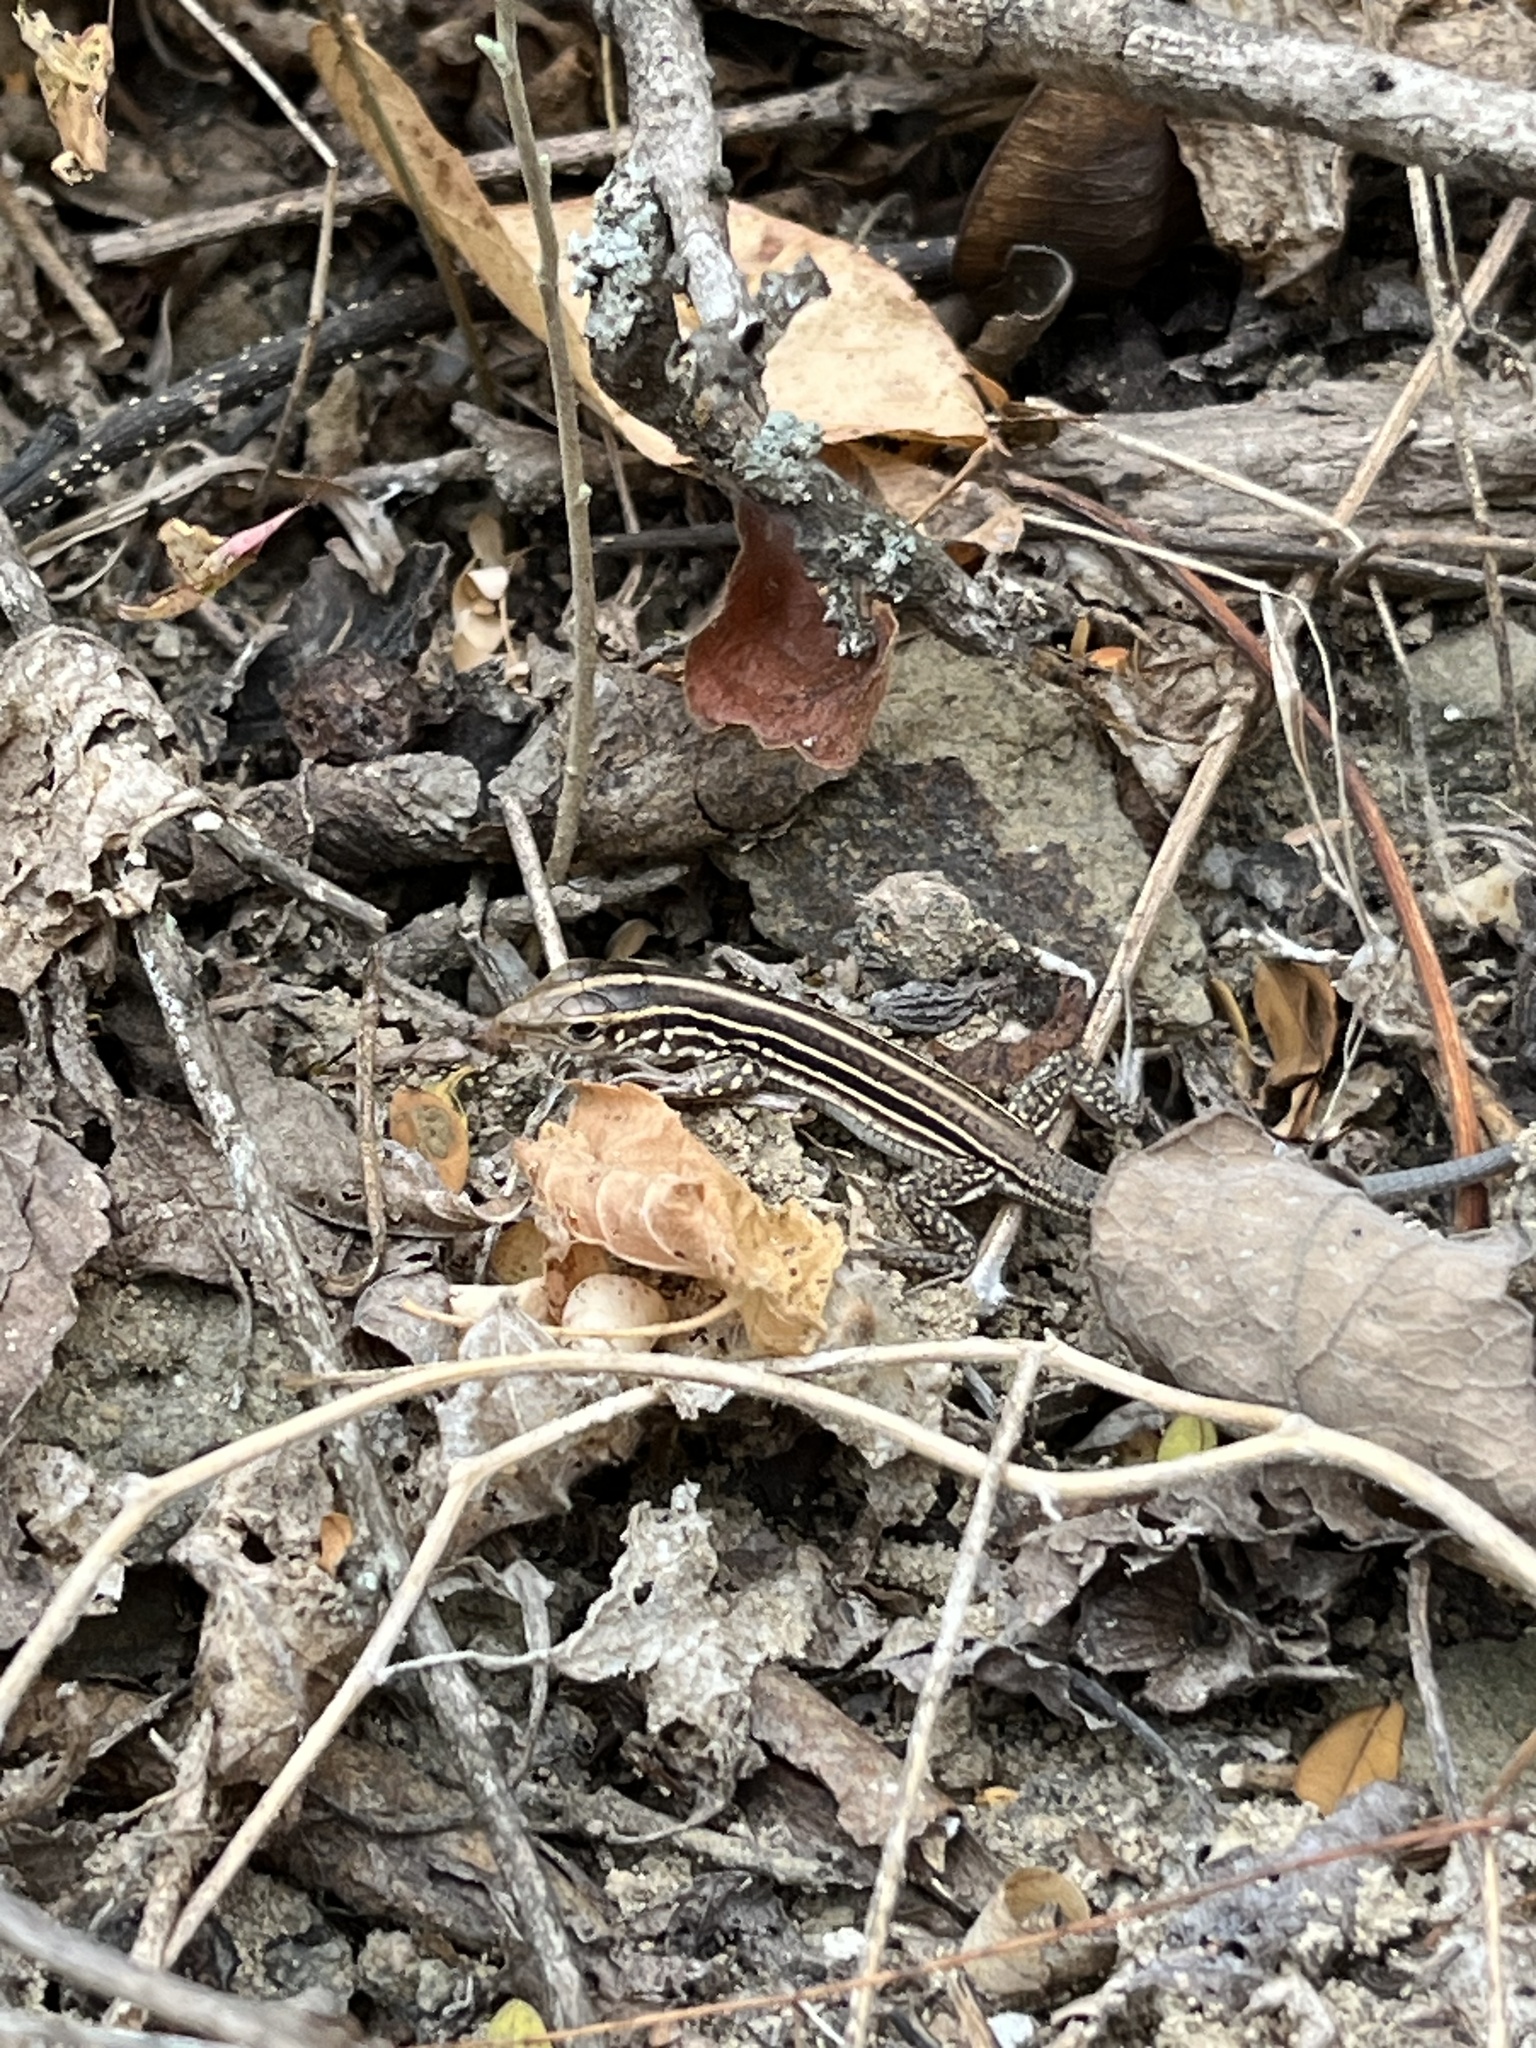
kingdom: Animalia
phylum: Chordata
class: Squamata
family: Teiidae
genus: Medopheos
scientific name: Medopheos edracanthus
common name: Bocourt's ameiva
